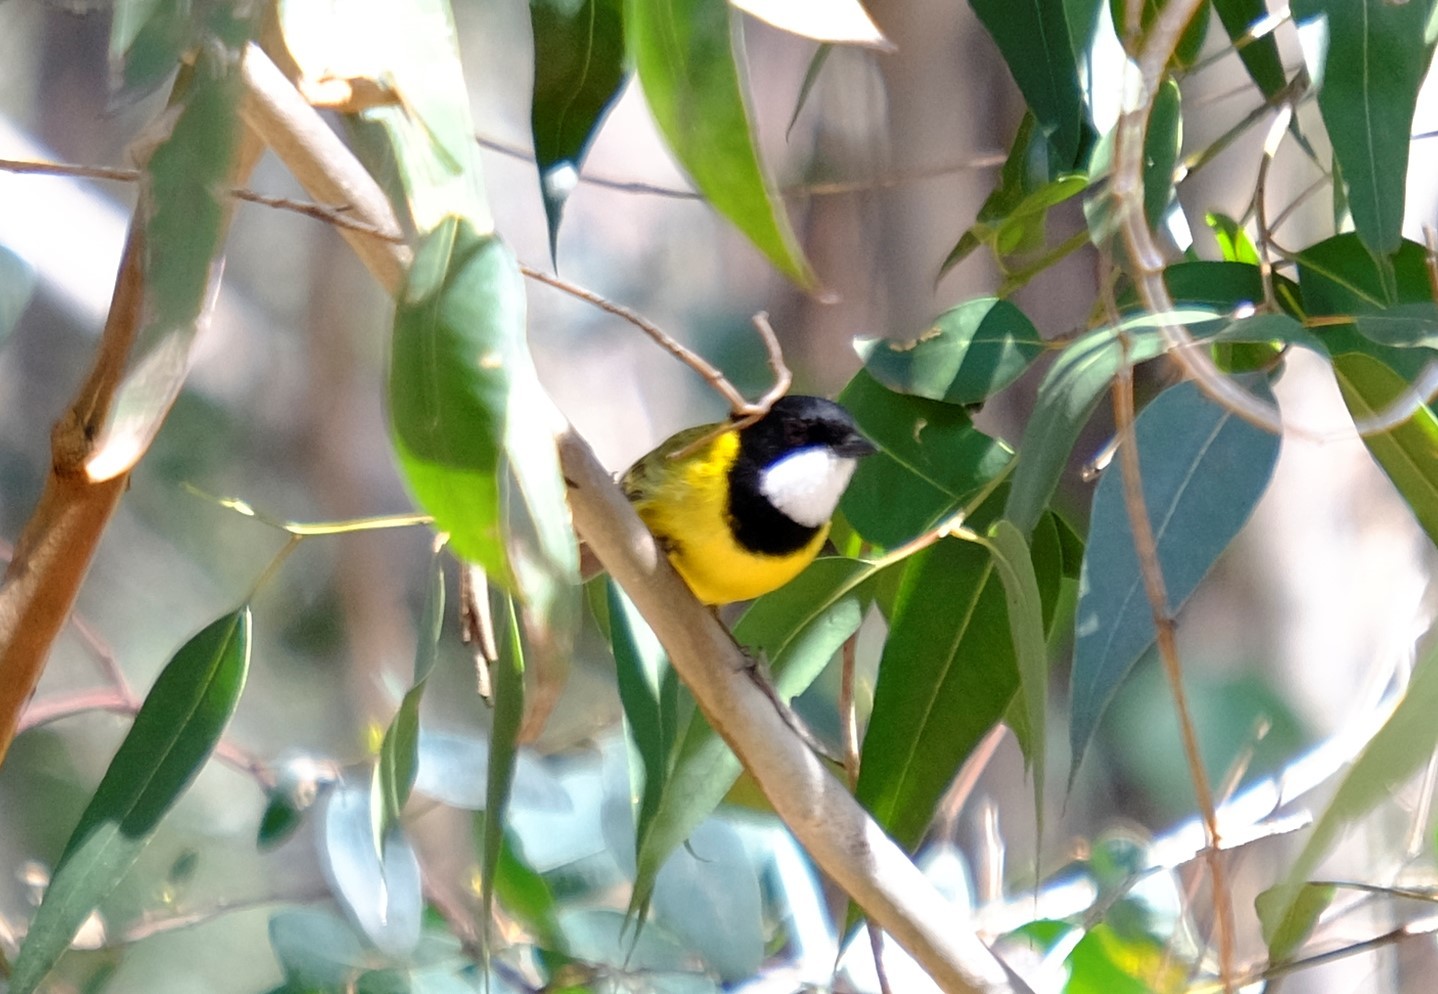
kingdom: Animalia
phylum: Chordata
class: Aves
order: Passeriformes
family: Pachycephalidae
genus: Pachycephala
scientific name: Pachycephala pectoralis
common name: Australian golden whistler
